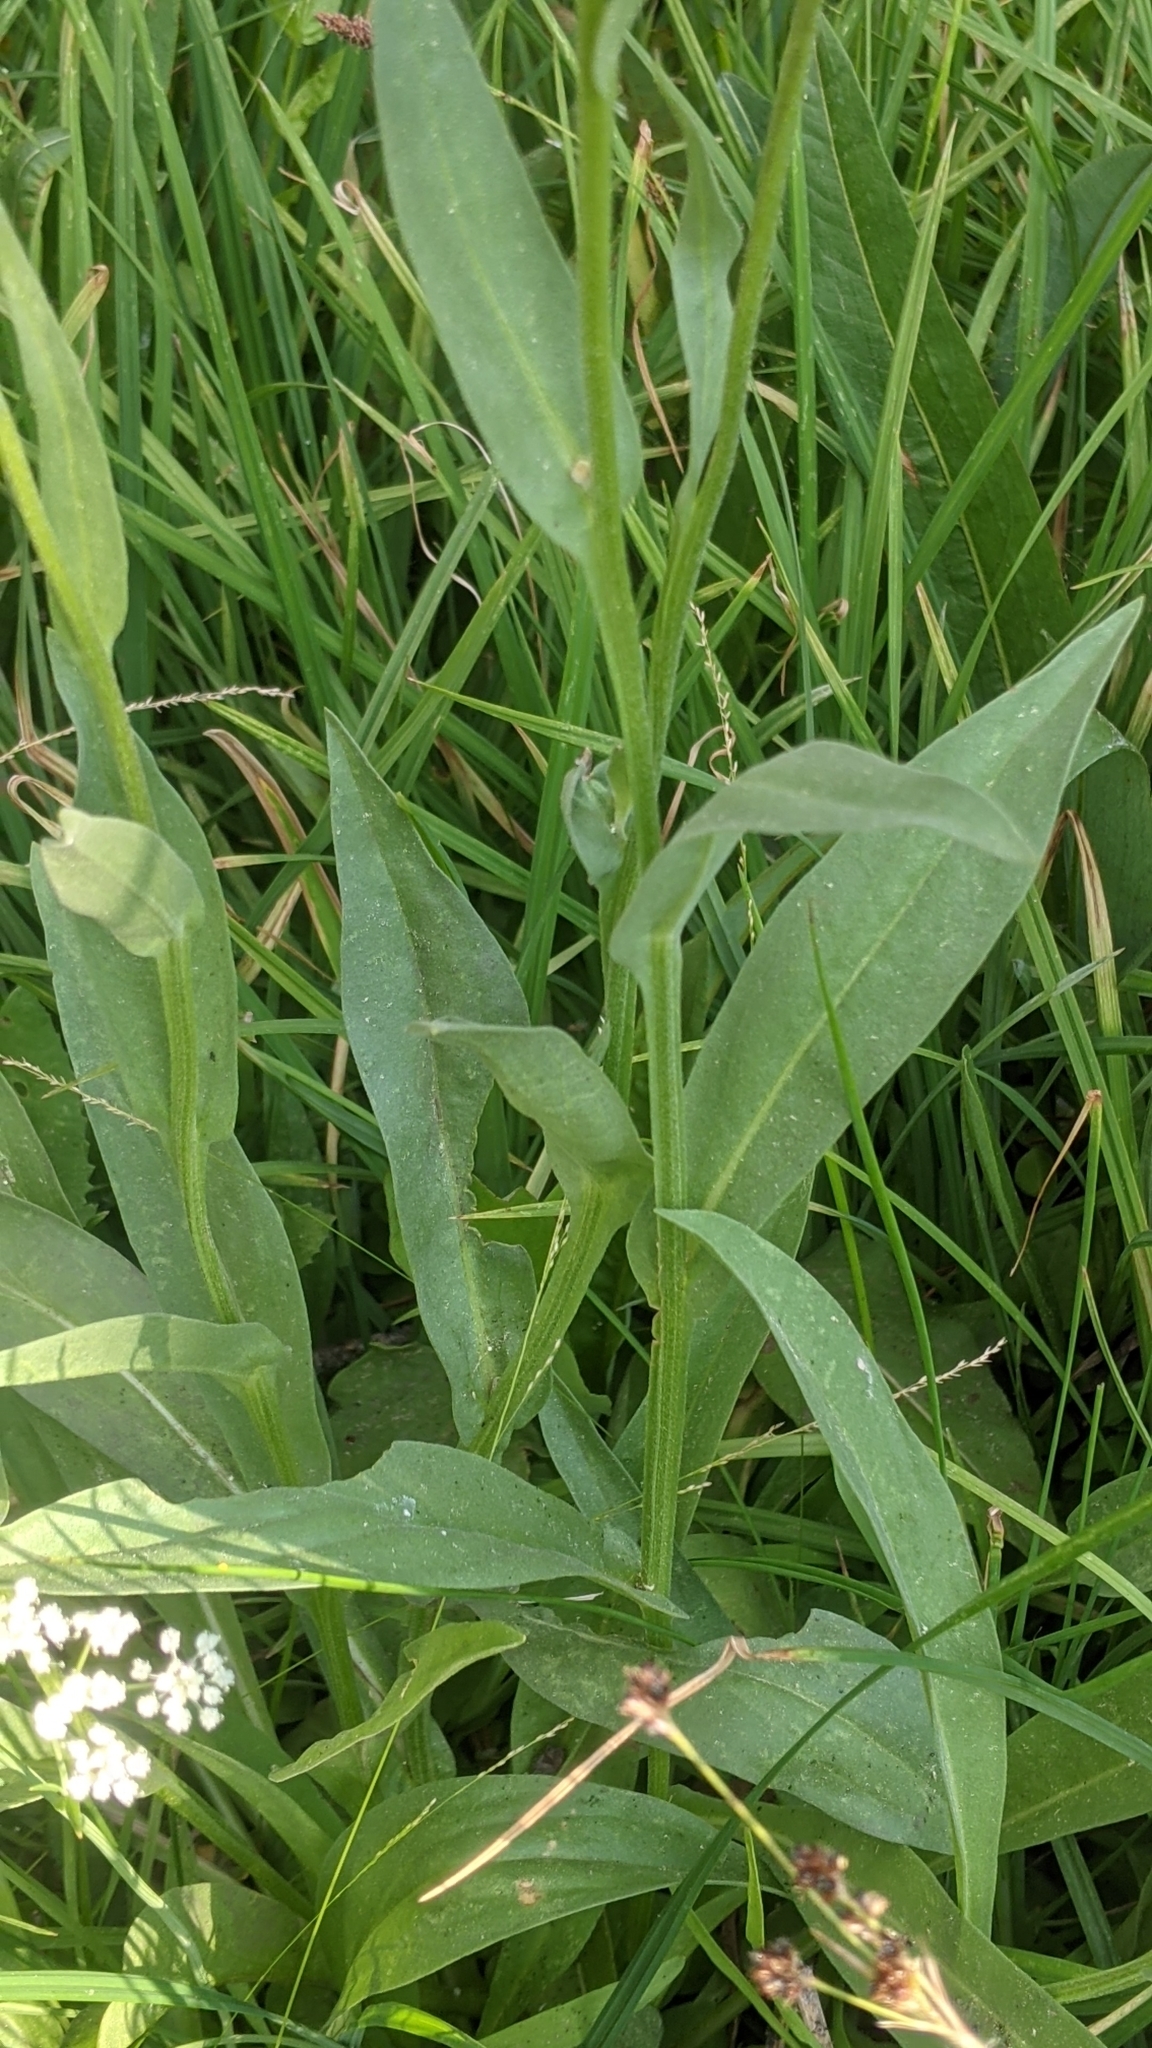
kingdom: Plantae
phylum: Tracheophyta
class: Magnoliopsida
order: Asterales
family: Asteraceae
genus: Helenium
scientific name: Helenium bigelovii
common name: Bigelow's sneezeweed
